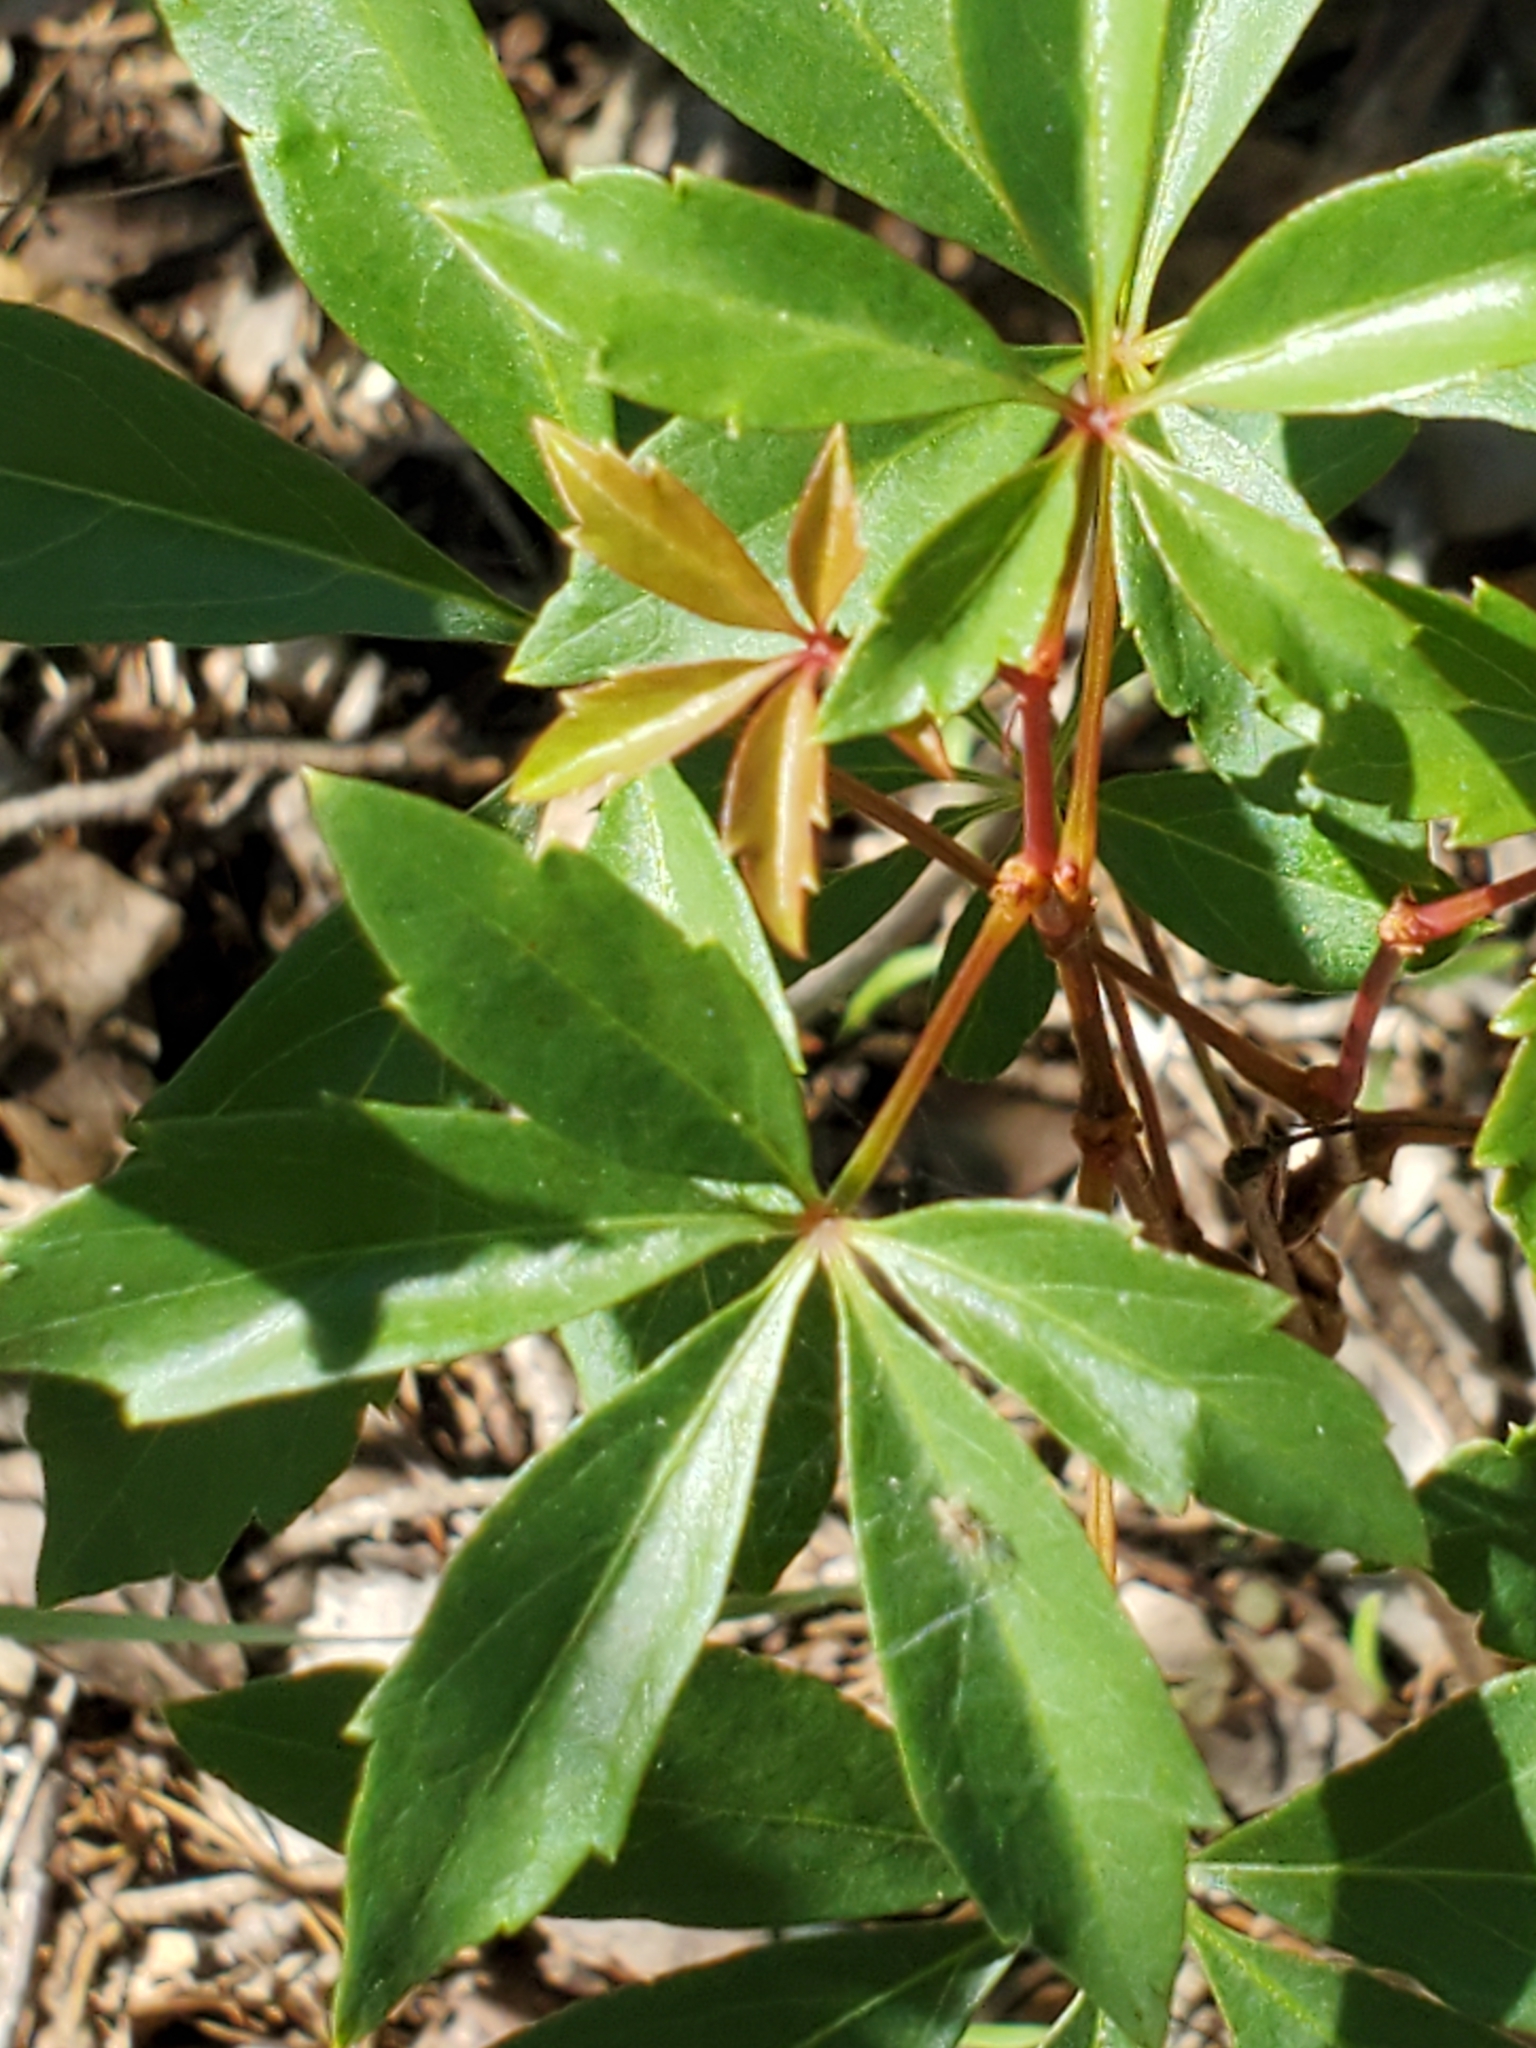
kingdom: Plantae
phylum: Tracheophyta
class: Magnoliopsida
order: Vitales
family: Vitaceae
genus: Parthenocissus
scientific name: Parthenocissus heptaphylla
